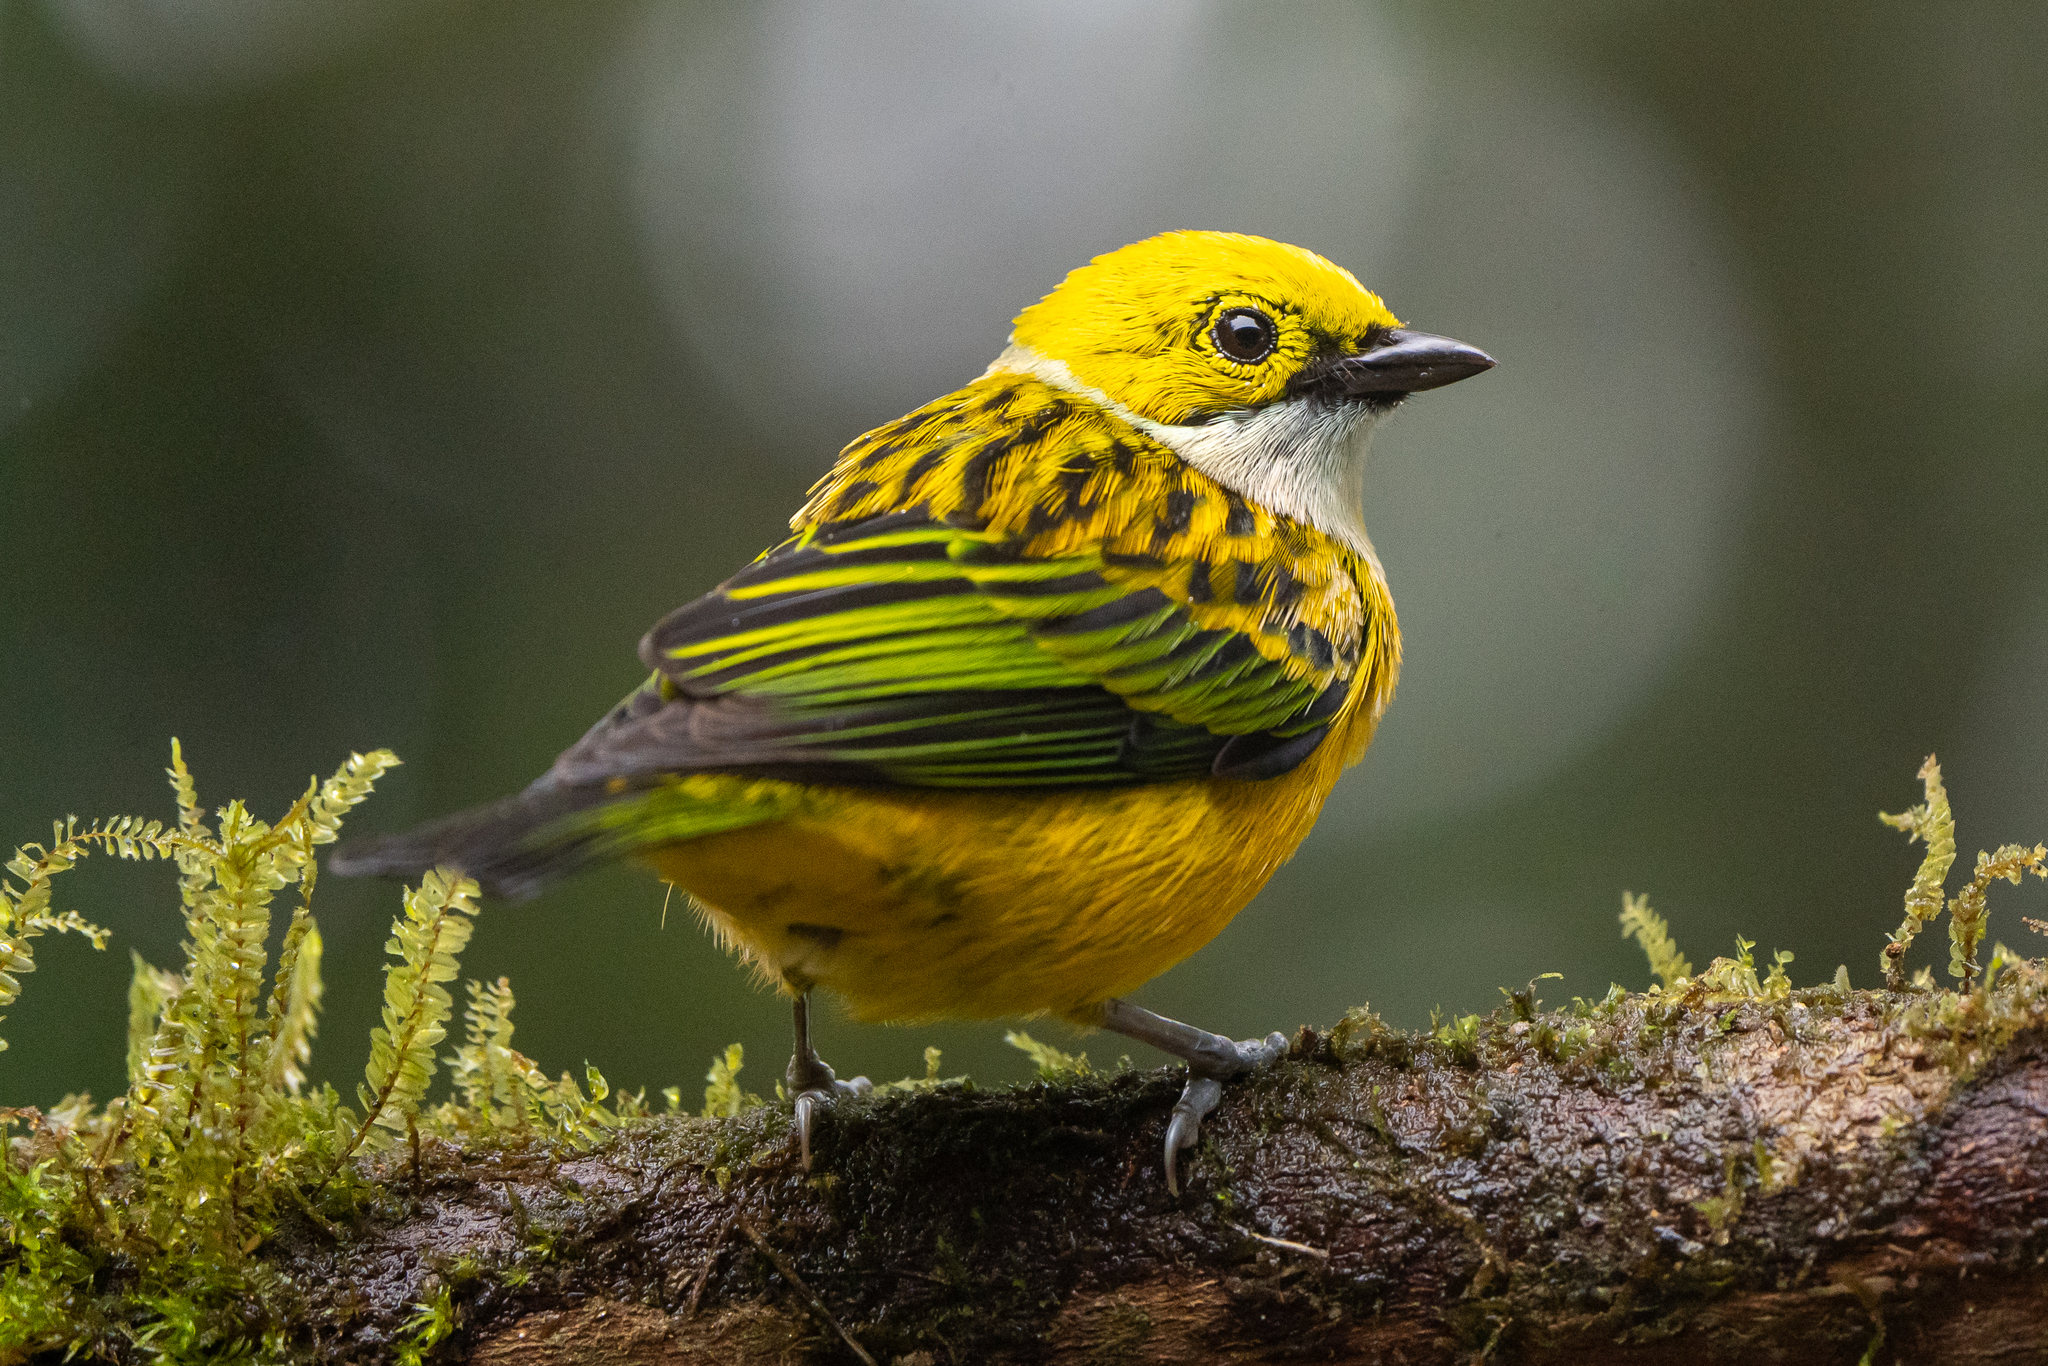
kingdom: Animalia
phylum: Chordata
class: Aves
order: Passeriformes
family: Thraupidae
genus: Tangara
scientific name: Tangara icterocephala
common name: Silver-throated tanager
